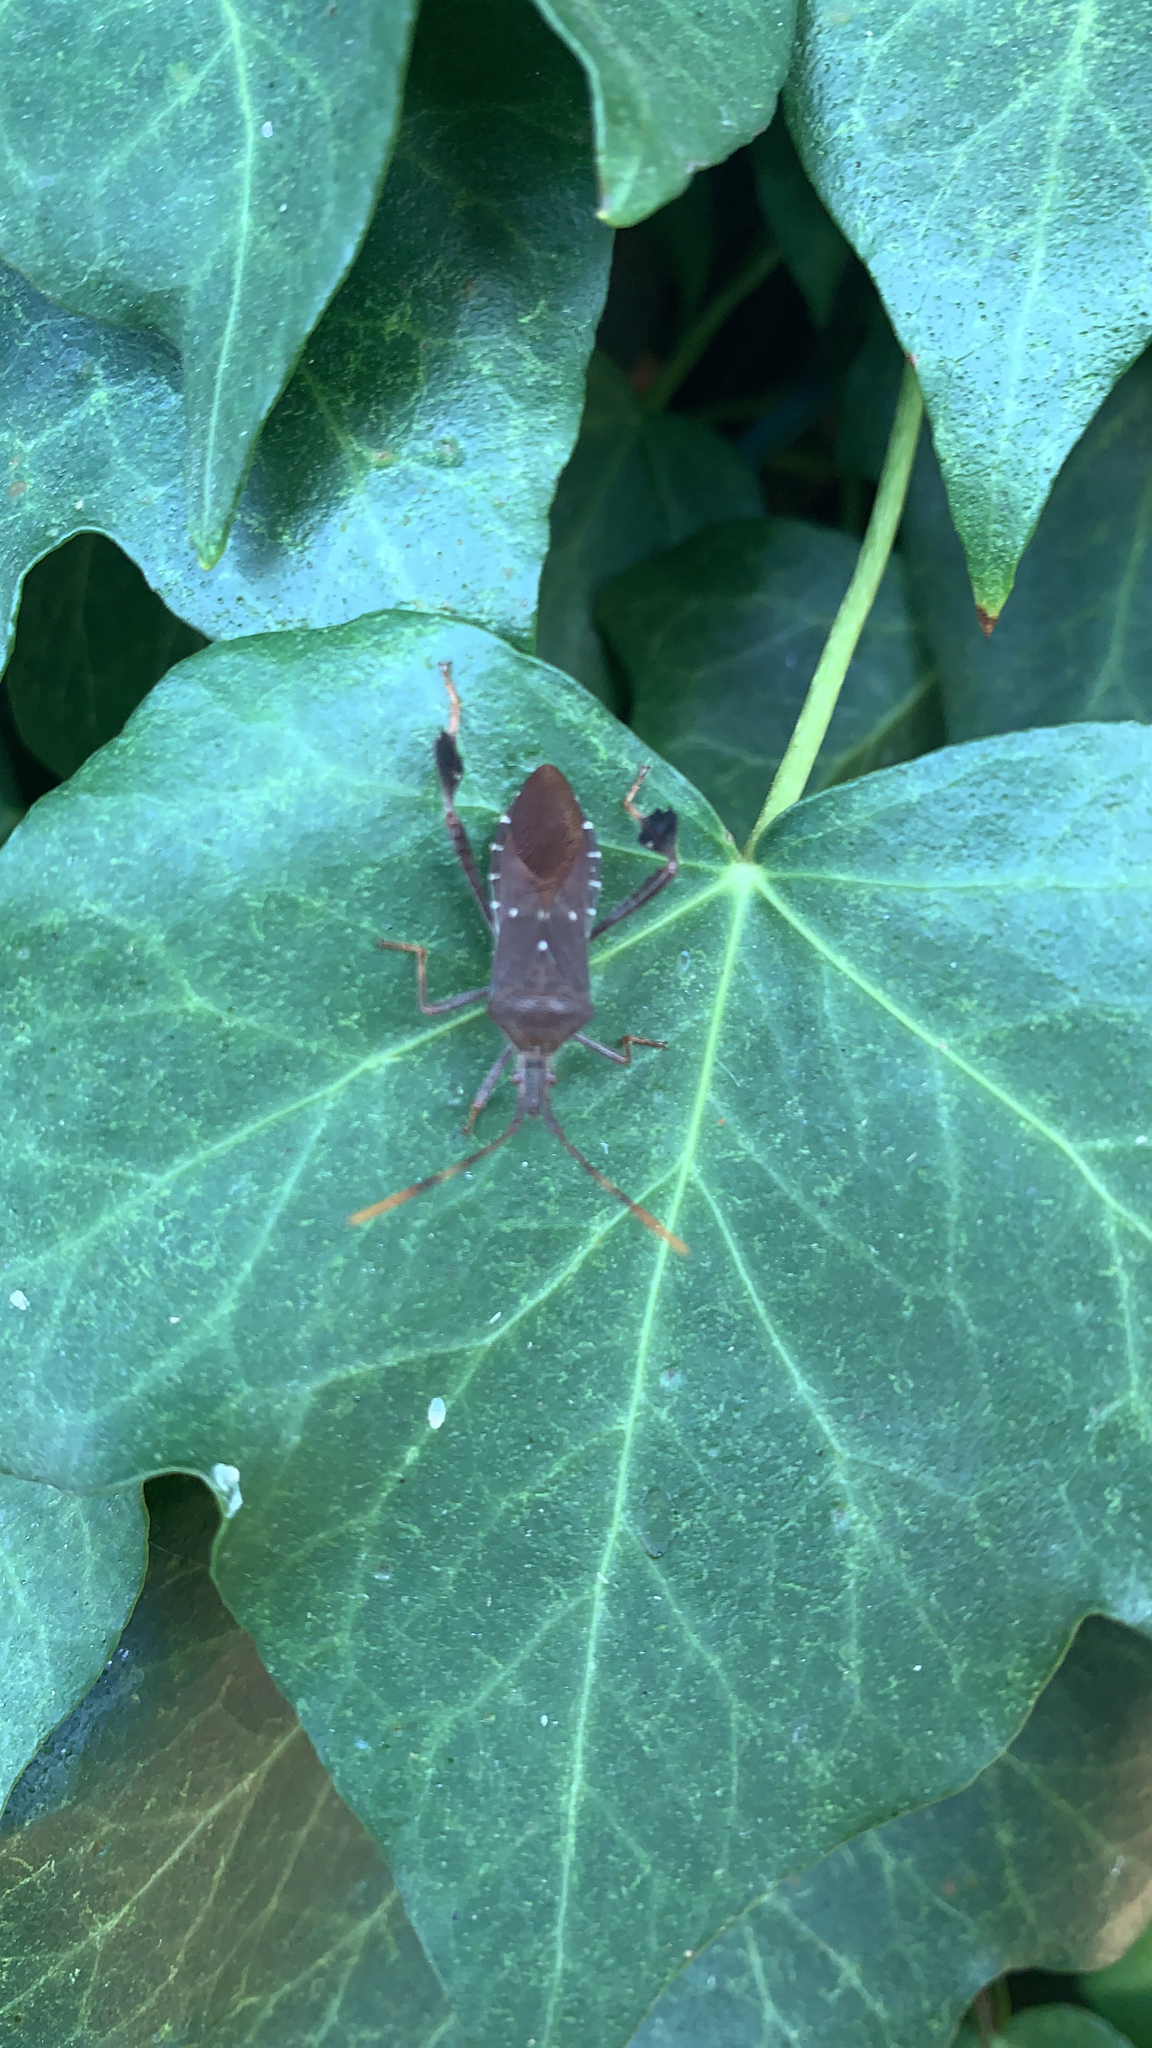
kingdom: Animalia
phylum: Arthropoda
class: Insecta
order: Hemiptera
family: Coreidae
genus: Leptoglossus
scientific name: Leptoglossus oppositus
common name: Northern leaf-footed bug
